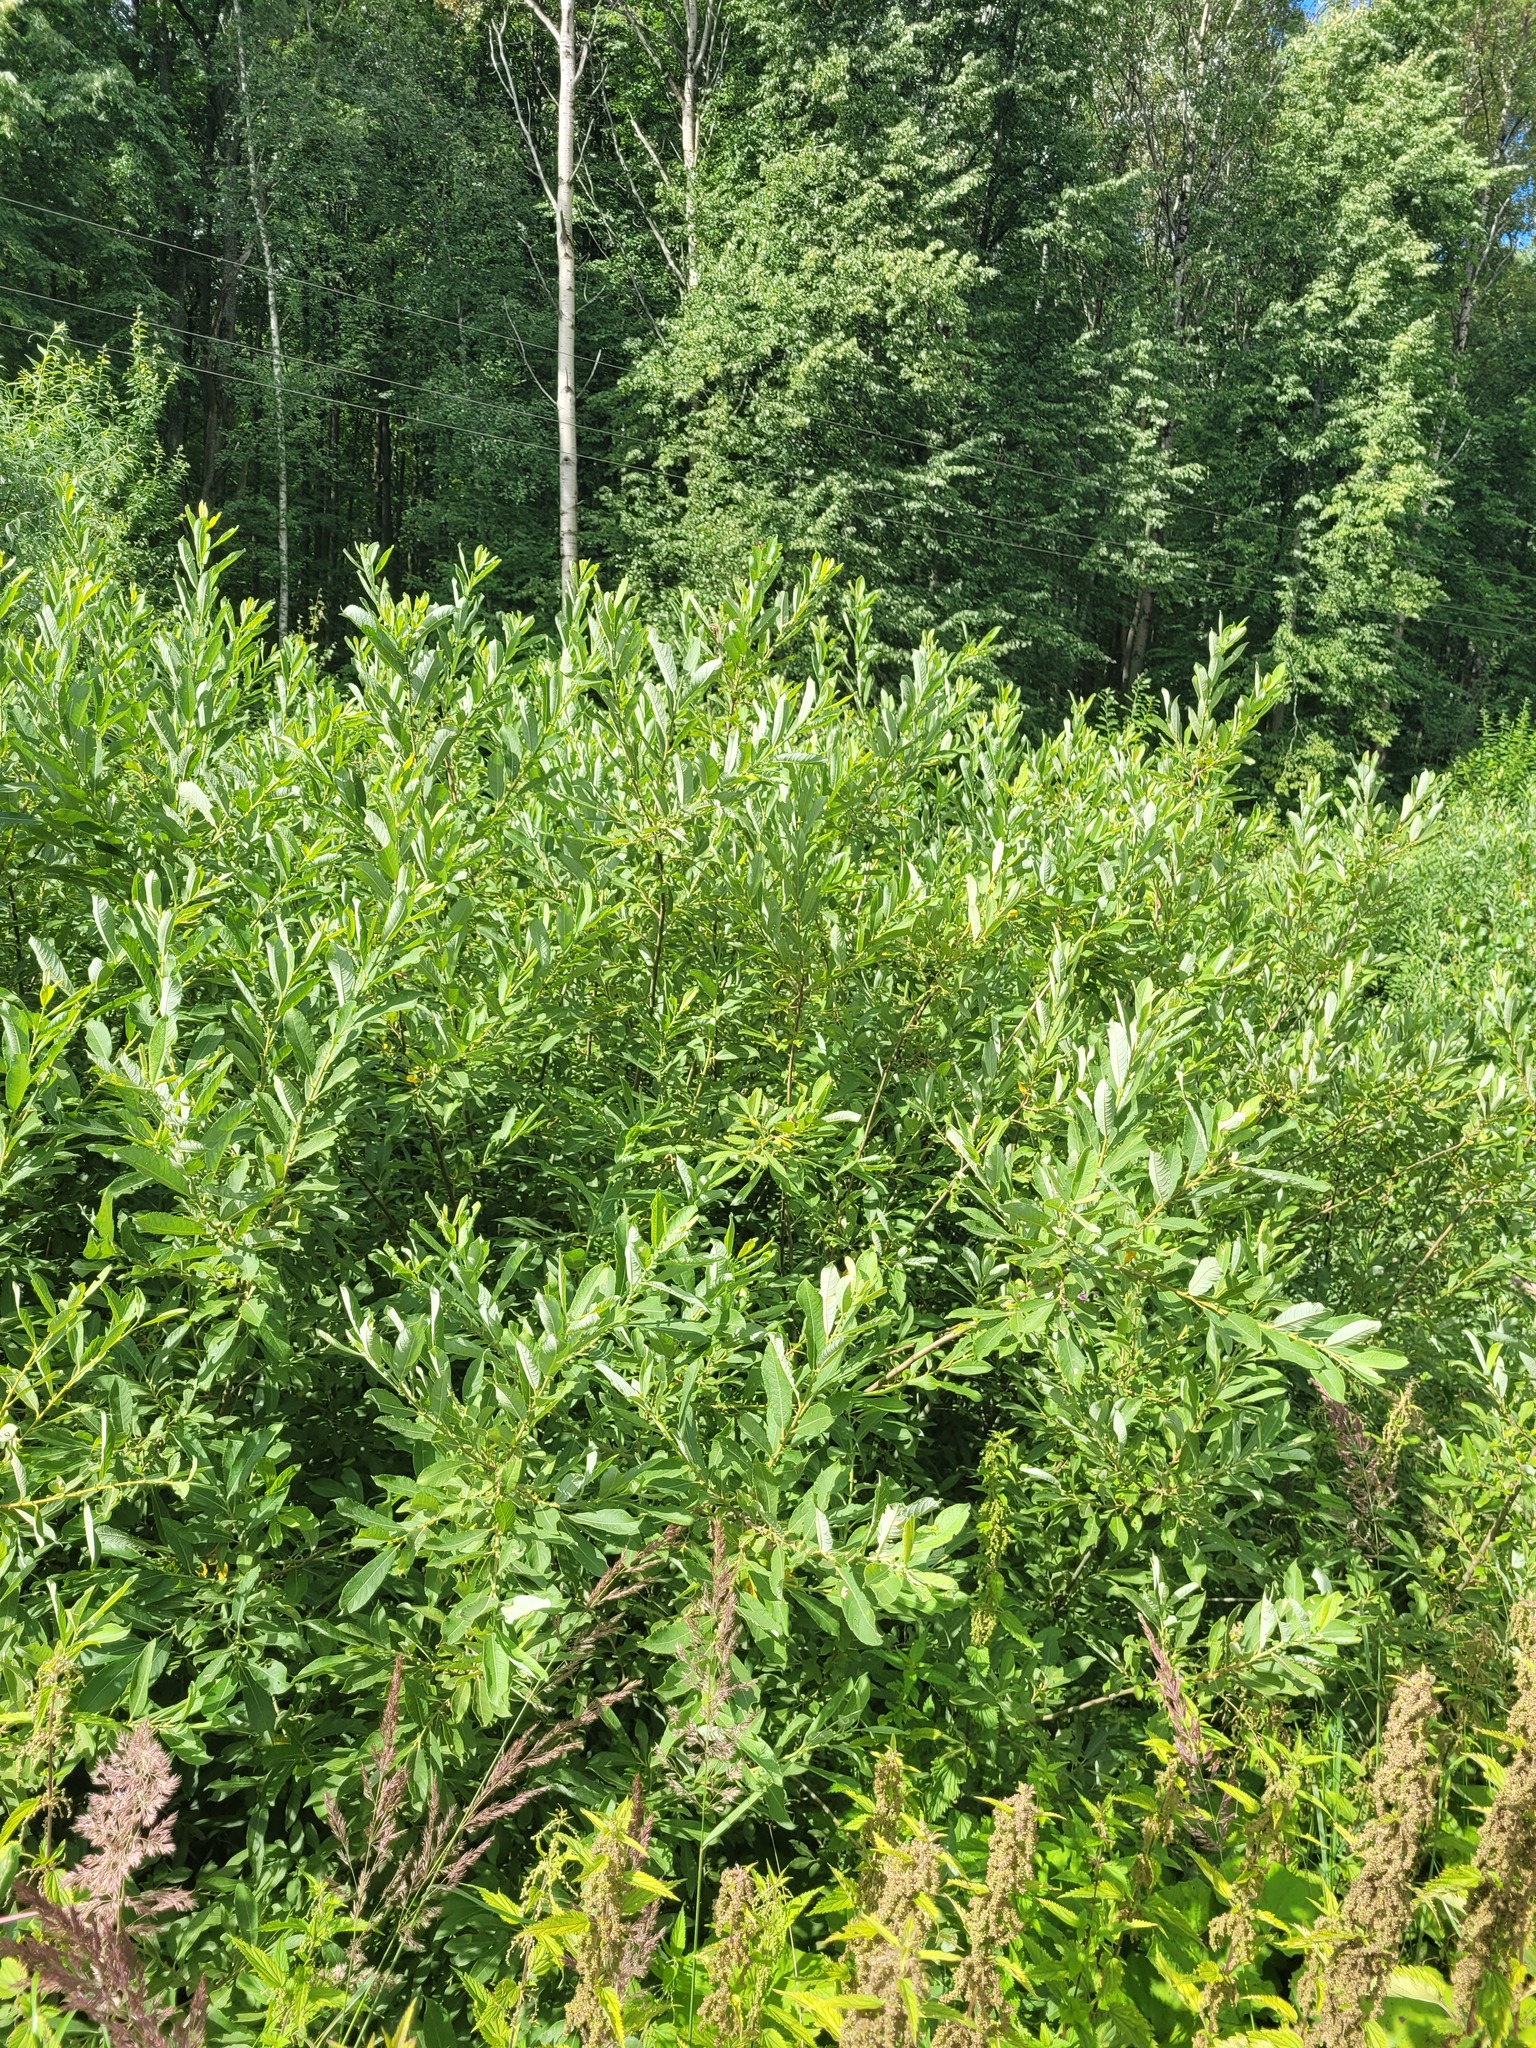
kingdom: Plantae
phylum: Tracheophyta
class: Magnoliopsida
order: Malpighiales
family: Salicaceae
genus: Salix
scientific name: Salix cinerea
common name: Common sallow
